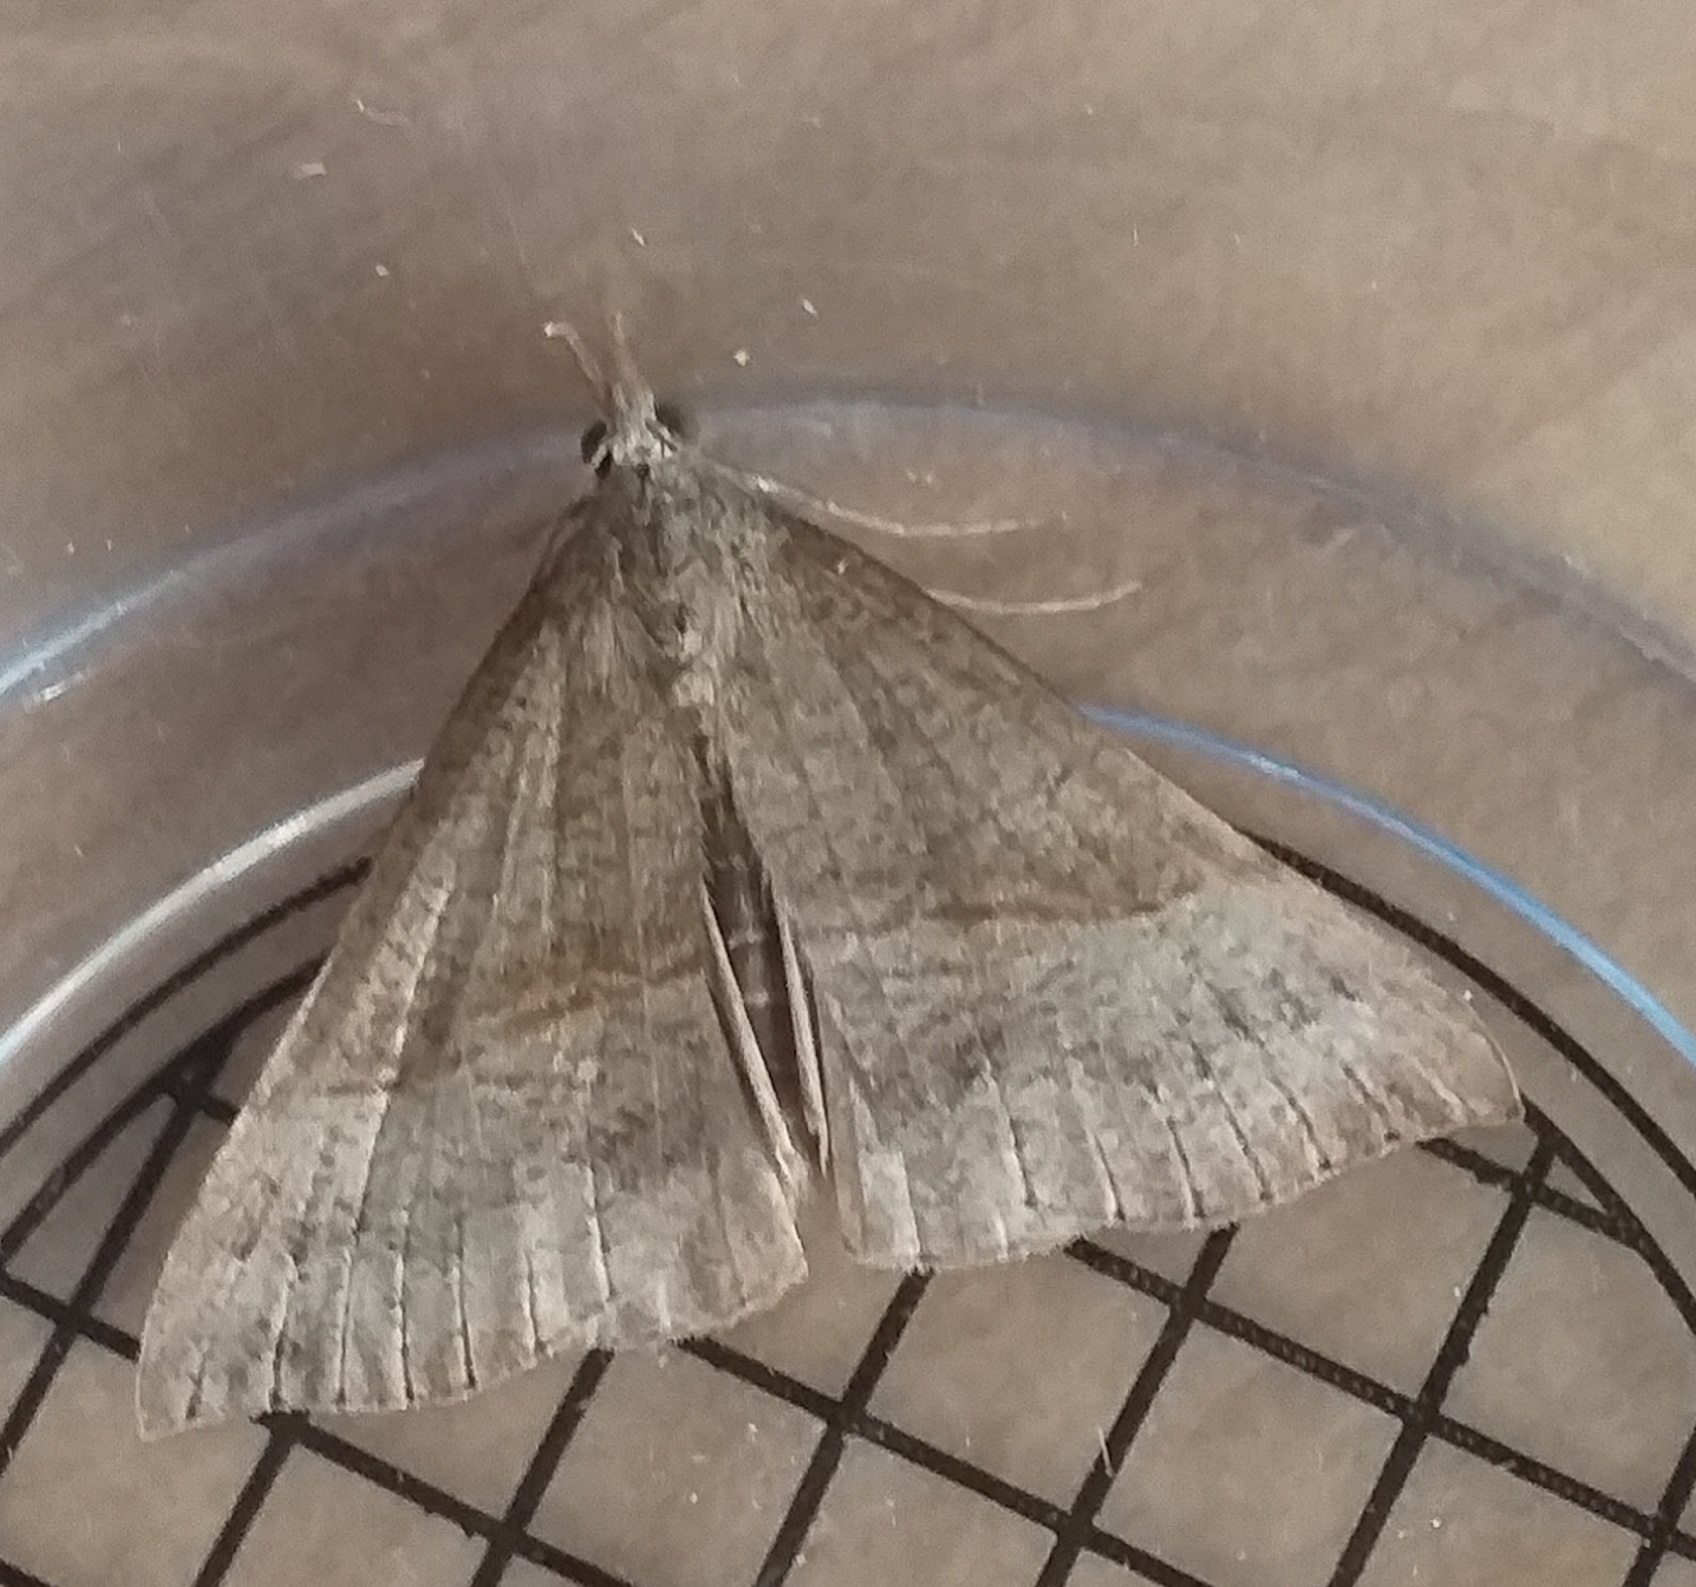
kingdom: Animalia
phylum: Arthropoda
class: Insecta
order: Lepidoptera
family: Erebidae
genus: Hypena
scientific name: Hypena proboscidalis
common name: Snout
